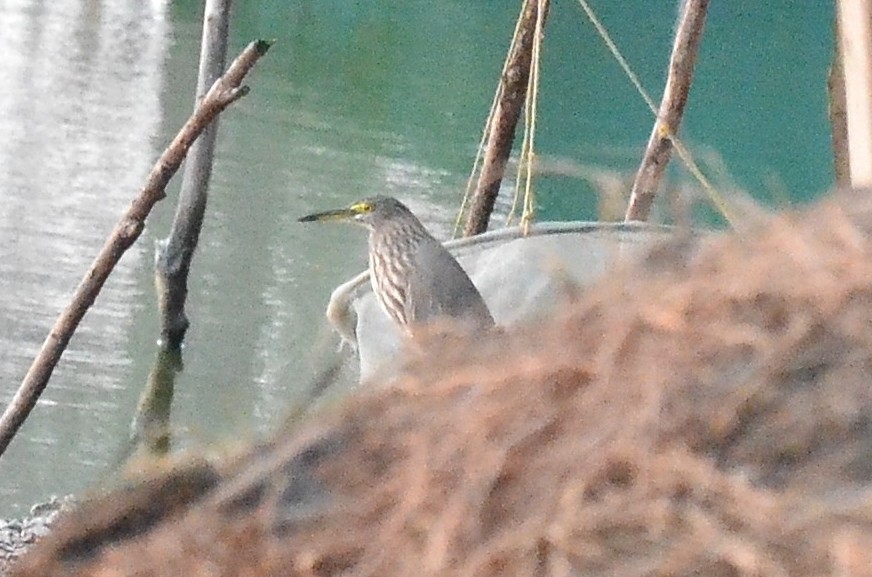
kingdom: Animalia
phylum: Chordata
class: Aves
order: Pelecaniformes
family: Ardeidae
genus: Ardeola
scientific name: Ardeola grayii
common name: Indian pond heron
